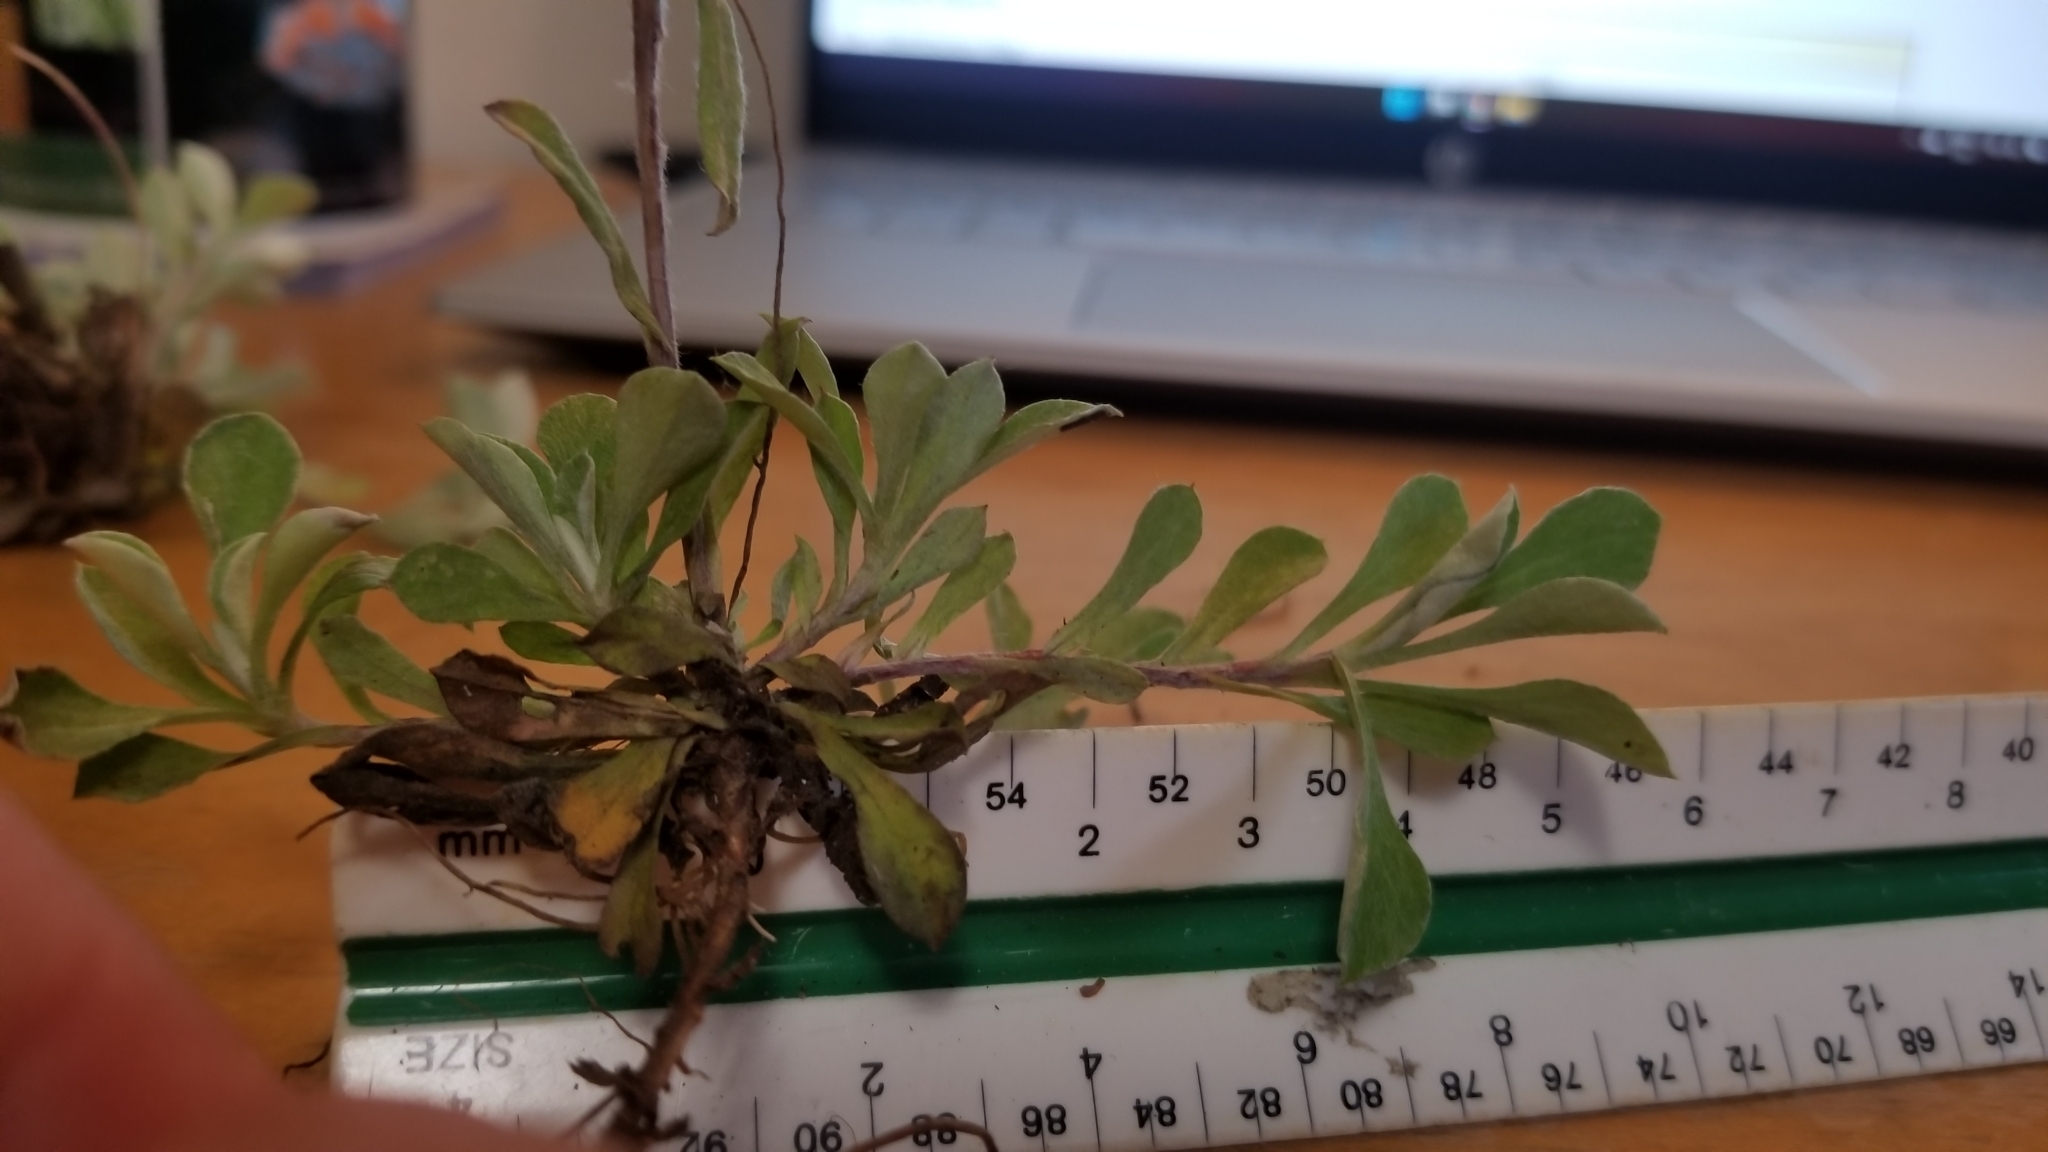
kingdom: Plantae
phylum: Tracheophyta
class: Magnoliopsida
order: Asterales
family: Asteraceae
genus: Antennaria
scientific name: Antennaria howellii
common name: Howell's pussytoes
